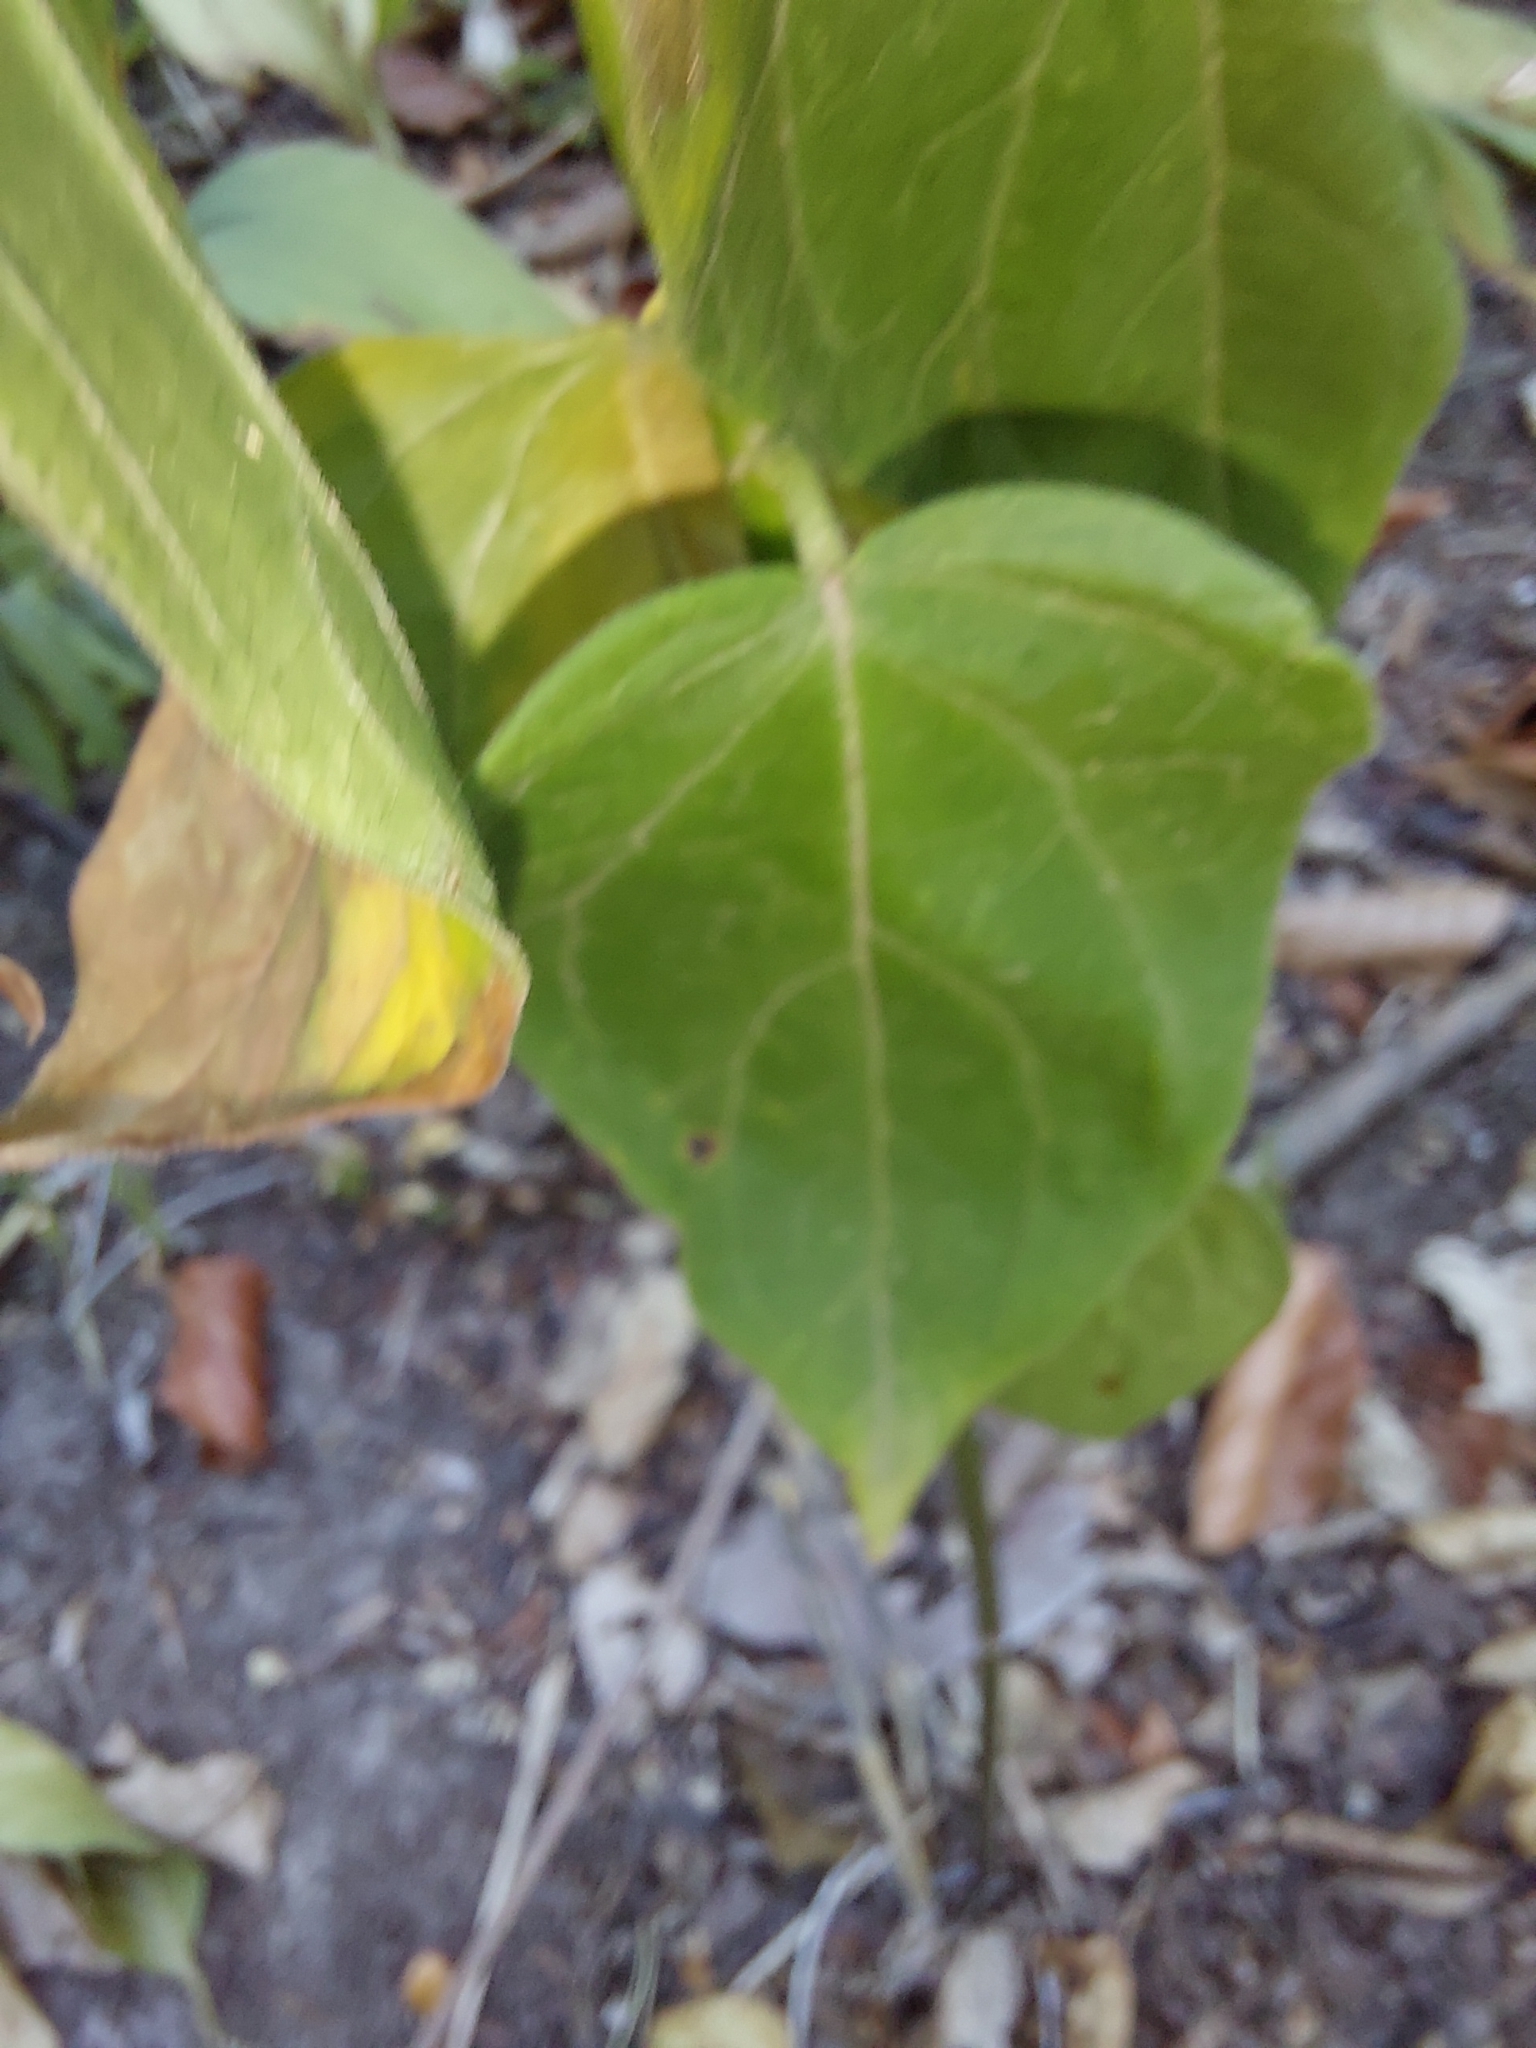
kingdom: Plantae
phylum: Tracheophyta
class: Magnoliopsida
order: Gentianales
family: Apocynaceae
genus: Vincetoxicum
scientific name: Vincetoxicum hirundinaria
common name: White swallowwort
